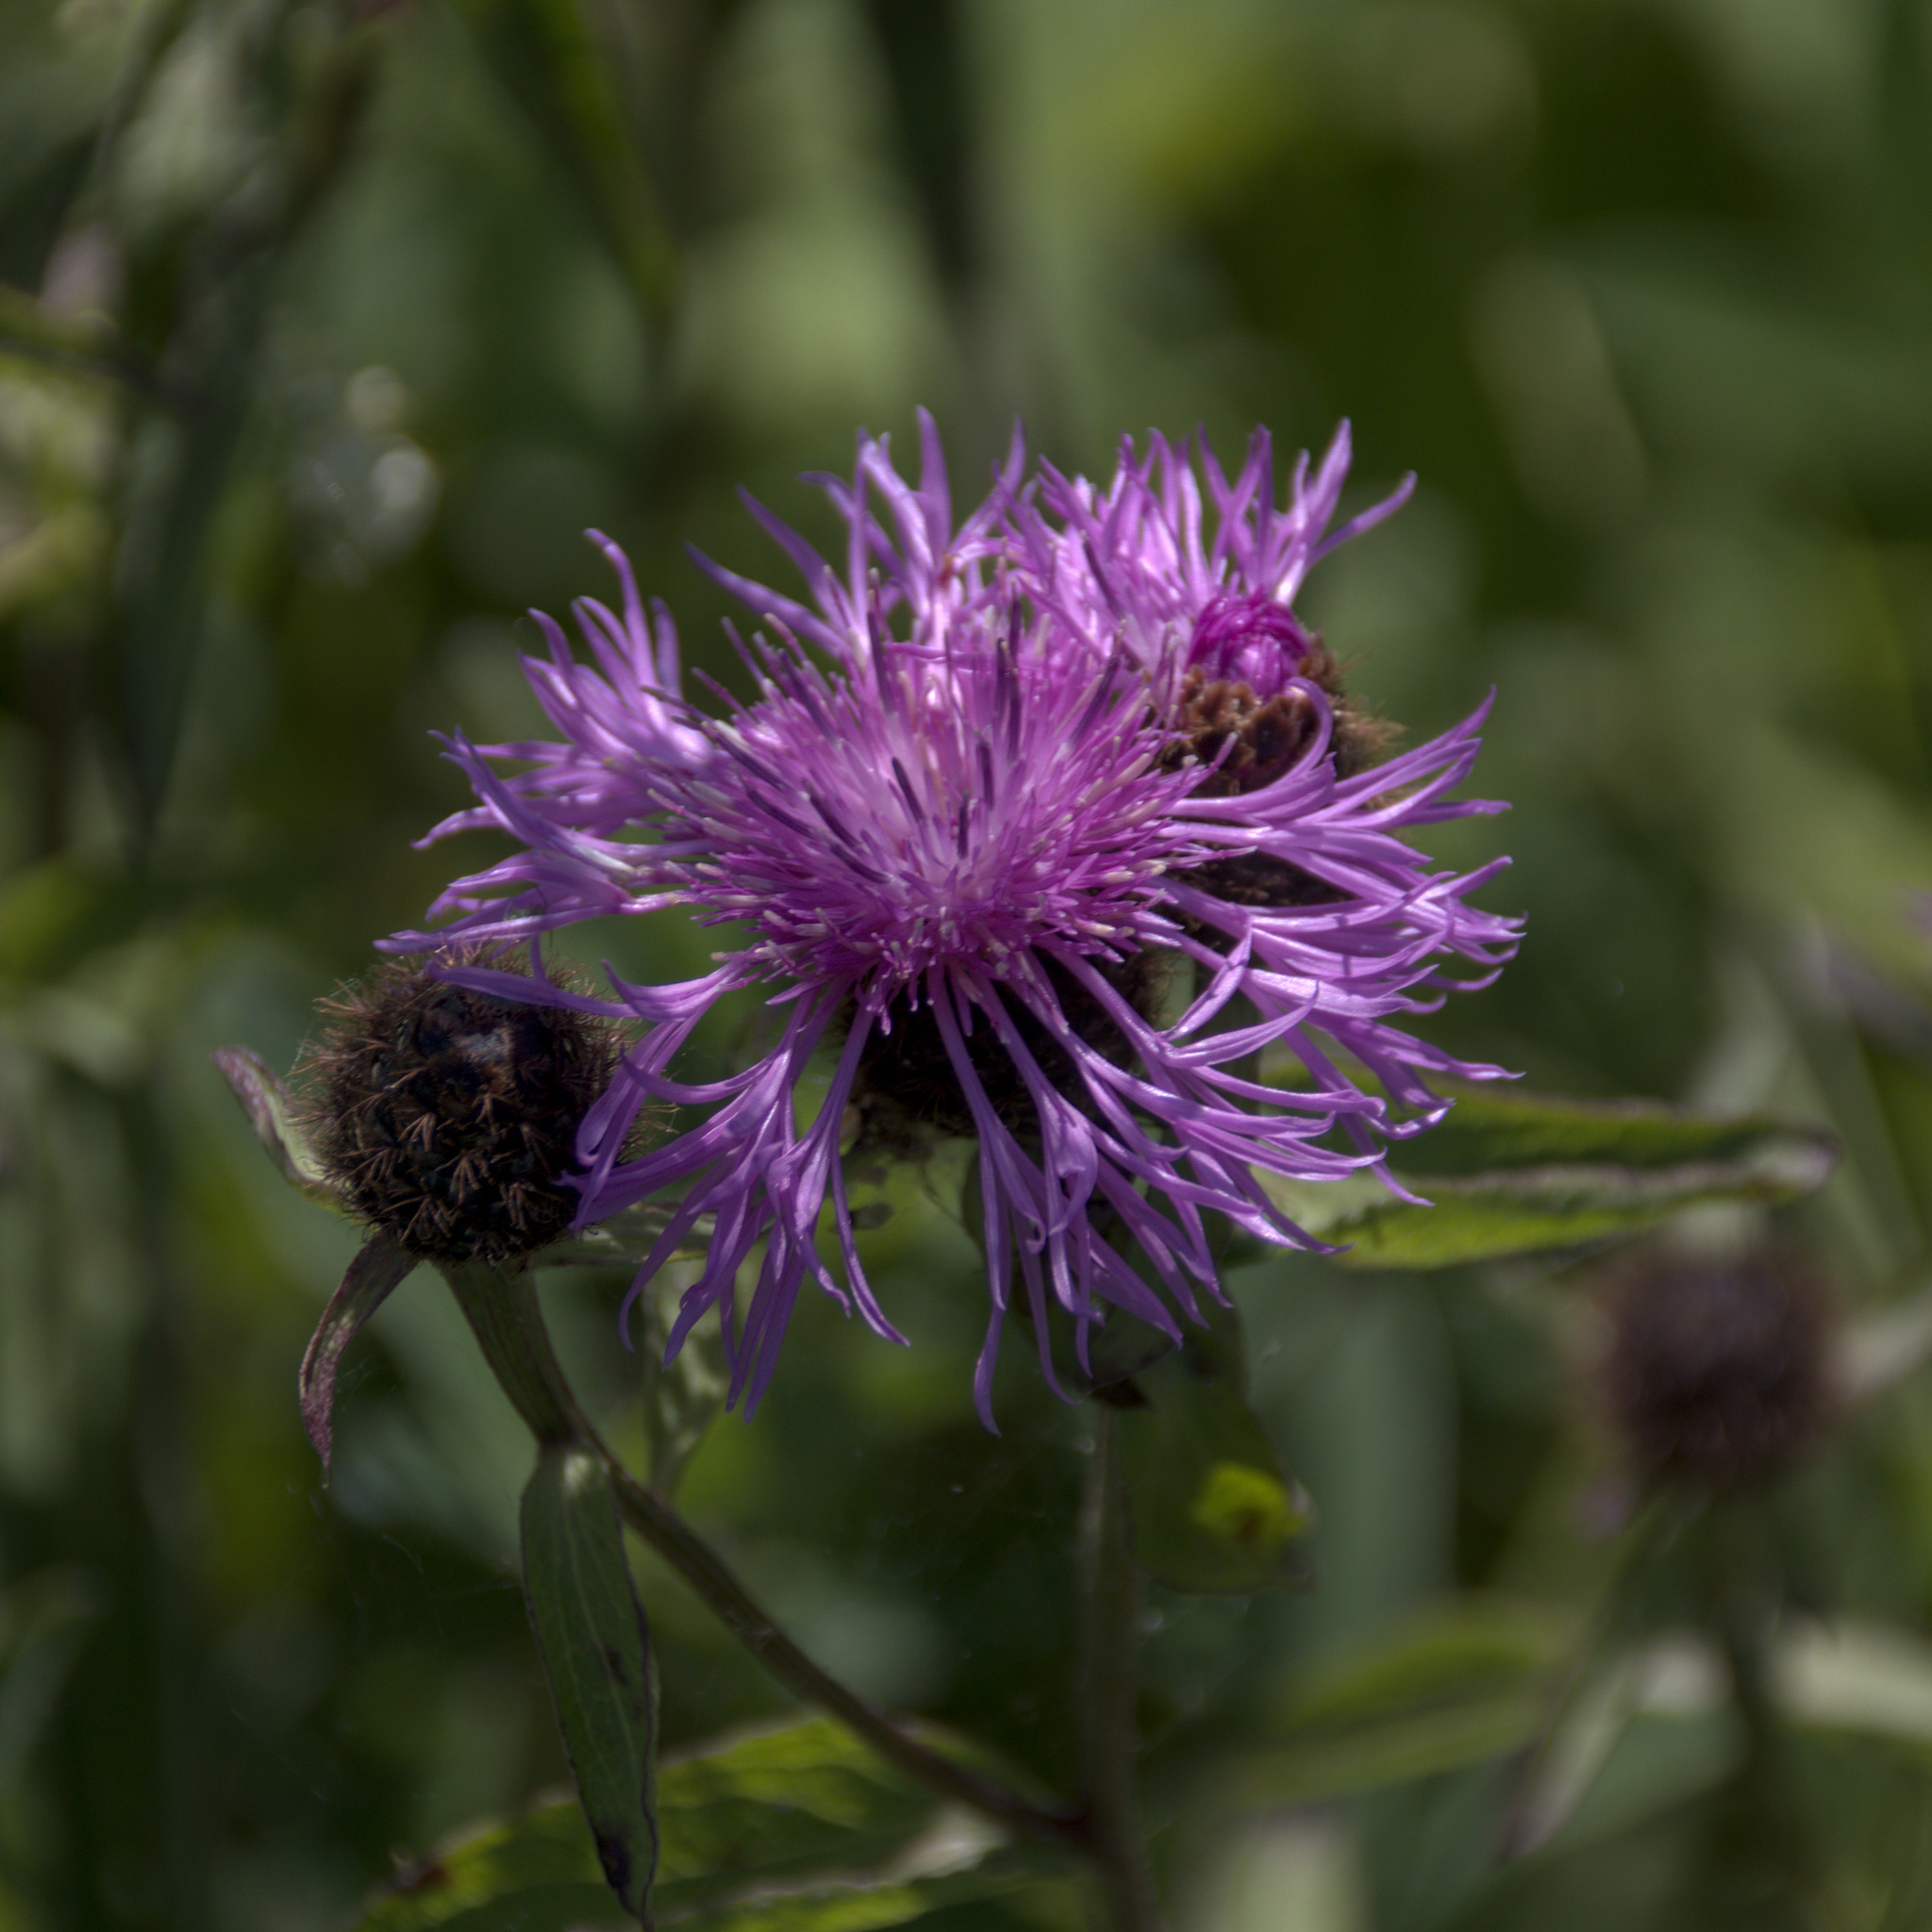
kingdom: Plantae
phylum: Tracheophyta
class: Magnoliopsida
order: Asterales
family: Asteraceae
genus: Centaurea
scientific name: Centaurea phrygia
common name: Wig knapweed
